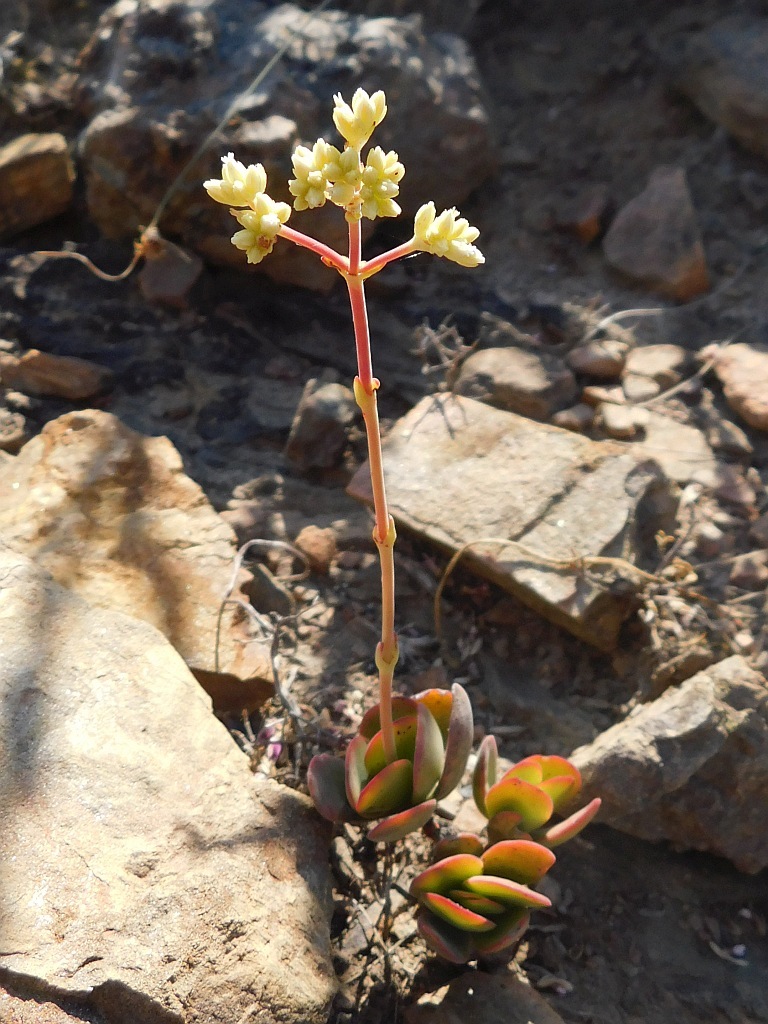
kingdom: Plantae
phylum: Tracheophyta
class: Magnoliopsida
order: Saxifragales
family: Crassulaceae
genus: Crassula
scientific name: Crassula atropurpurea
